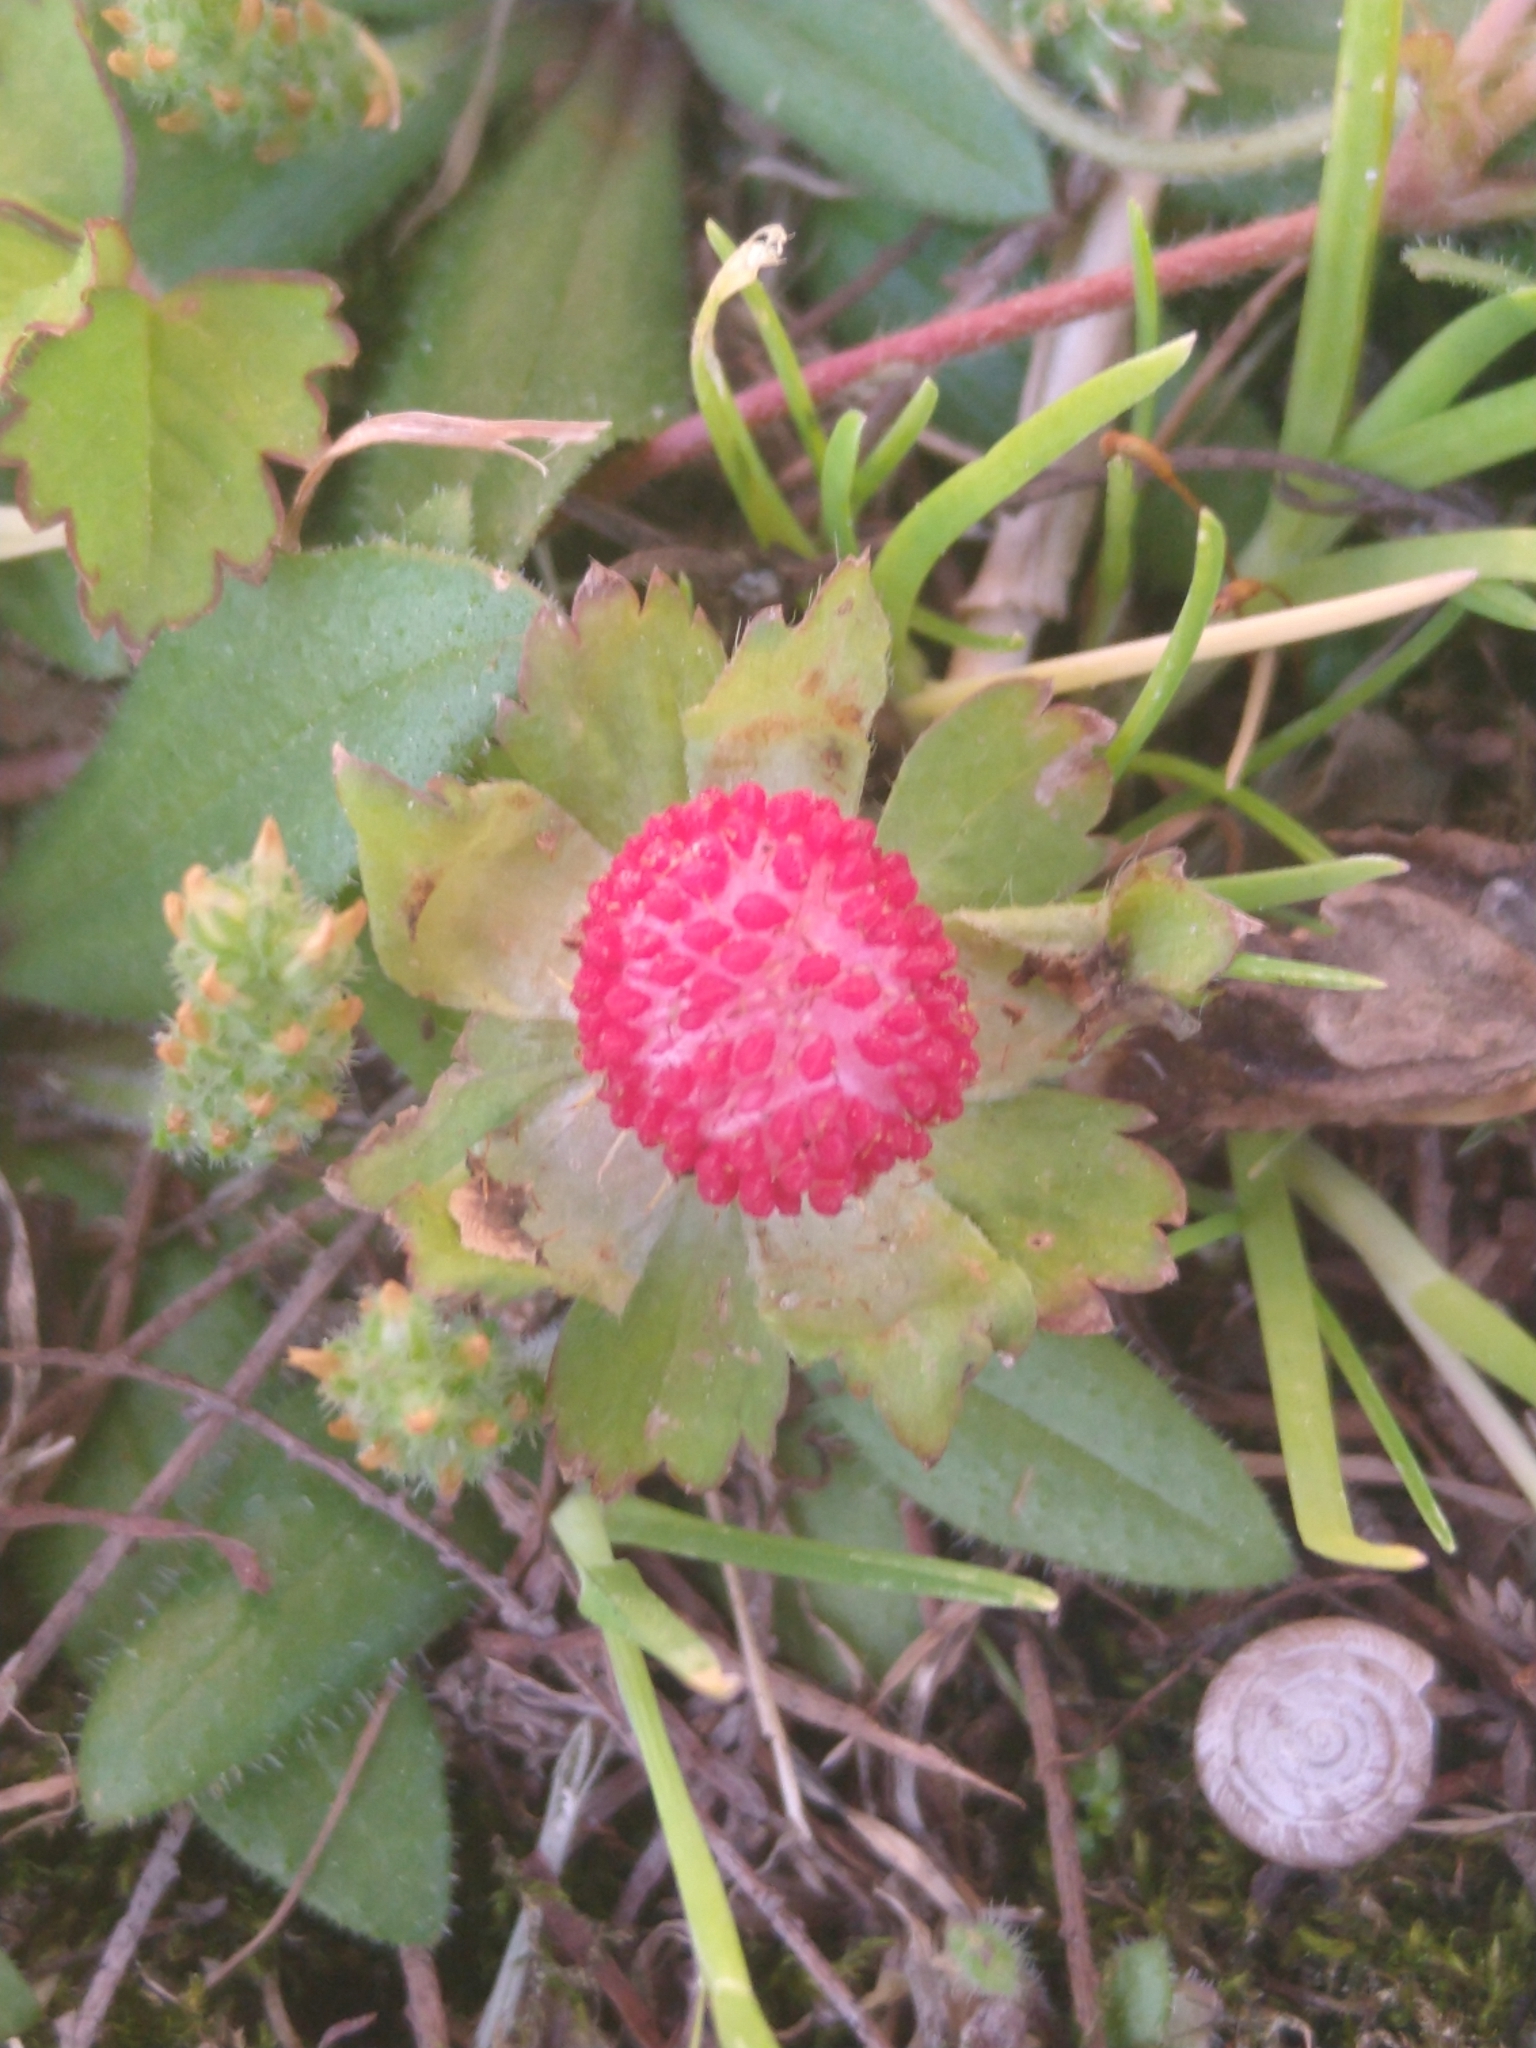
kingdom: Plantae
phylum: Tracheophyta
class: Magnoliopsida
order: Rosales
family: Rosaceae
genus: Potentilla
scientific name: Potentilla indica
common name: Yellow-flowered strawberry
